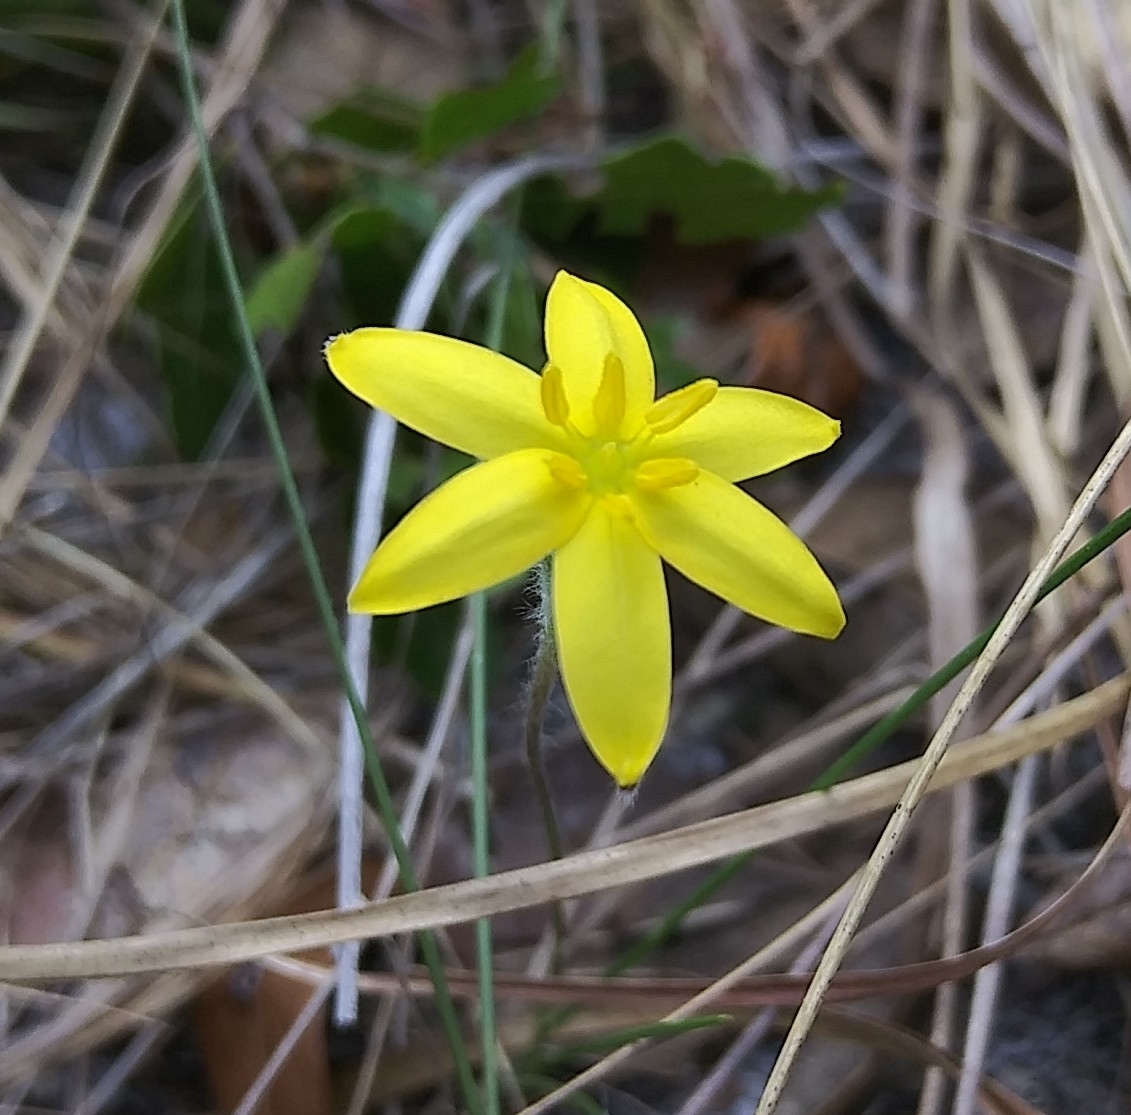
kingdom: Plantae
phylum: Tracheophyta
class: Liliopsida
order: Asparagales
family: Hypoxidaceae
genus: Hypoxis
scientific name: Hypoxis juncea
